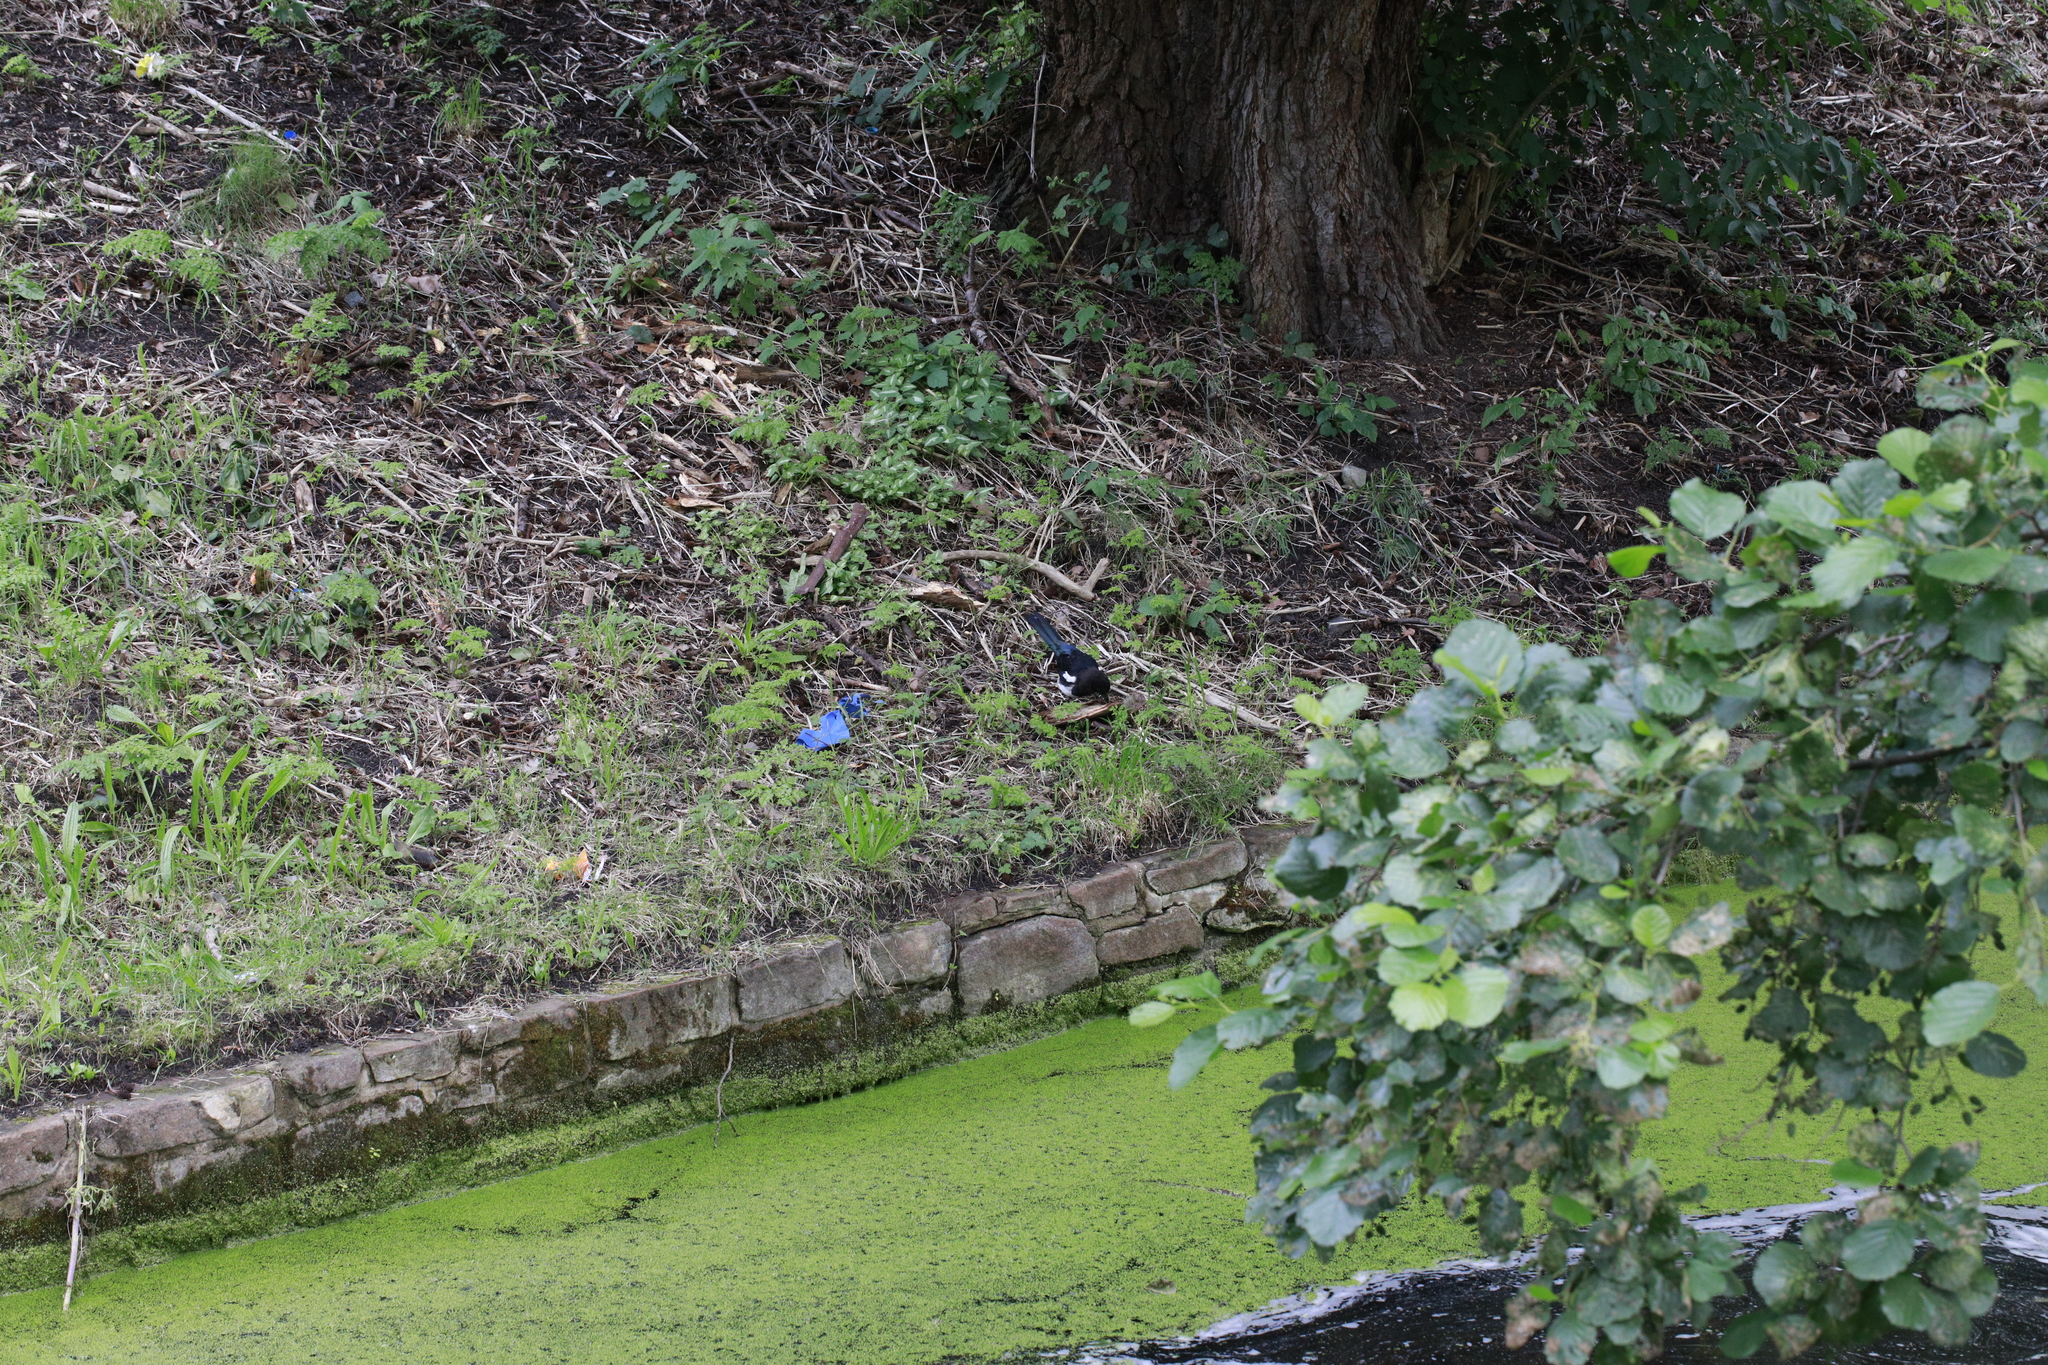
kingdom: Animalia
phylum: Chordata
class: Aves
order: Passeriformes
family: Corvidae
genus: Pica
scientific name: Pica pica
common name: Eurasian magpie
